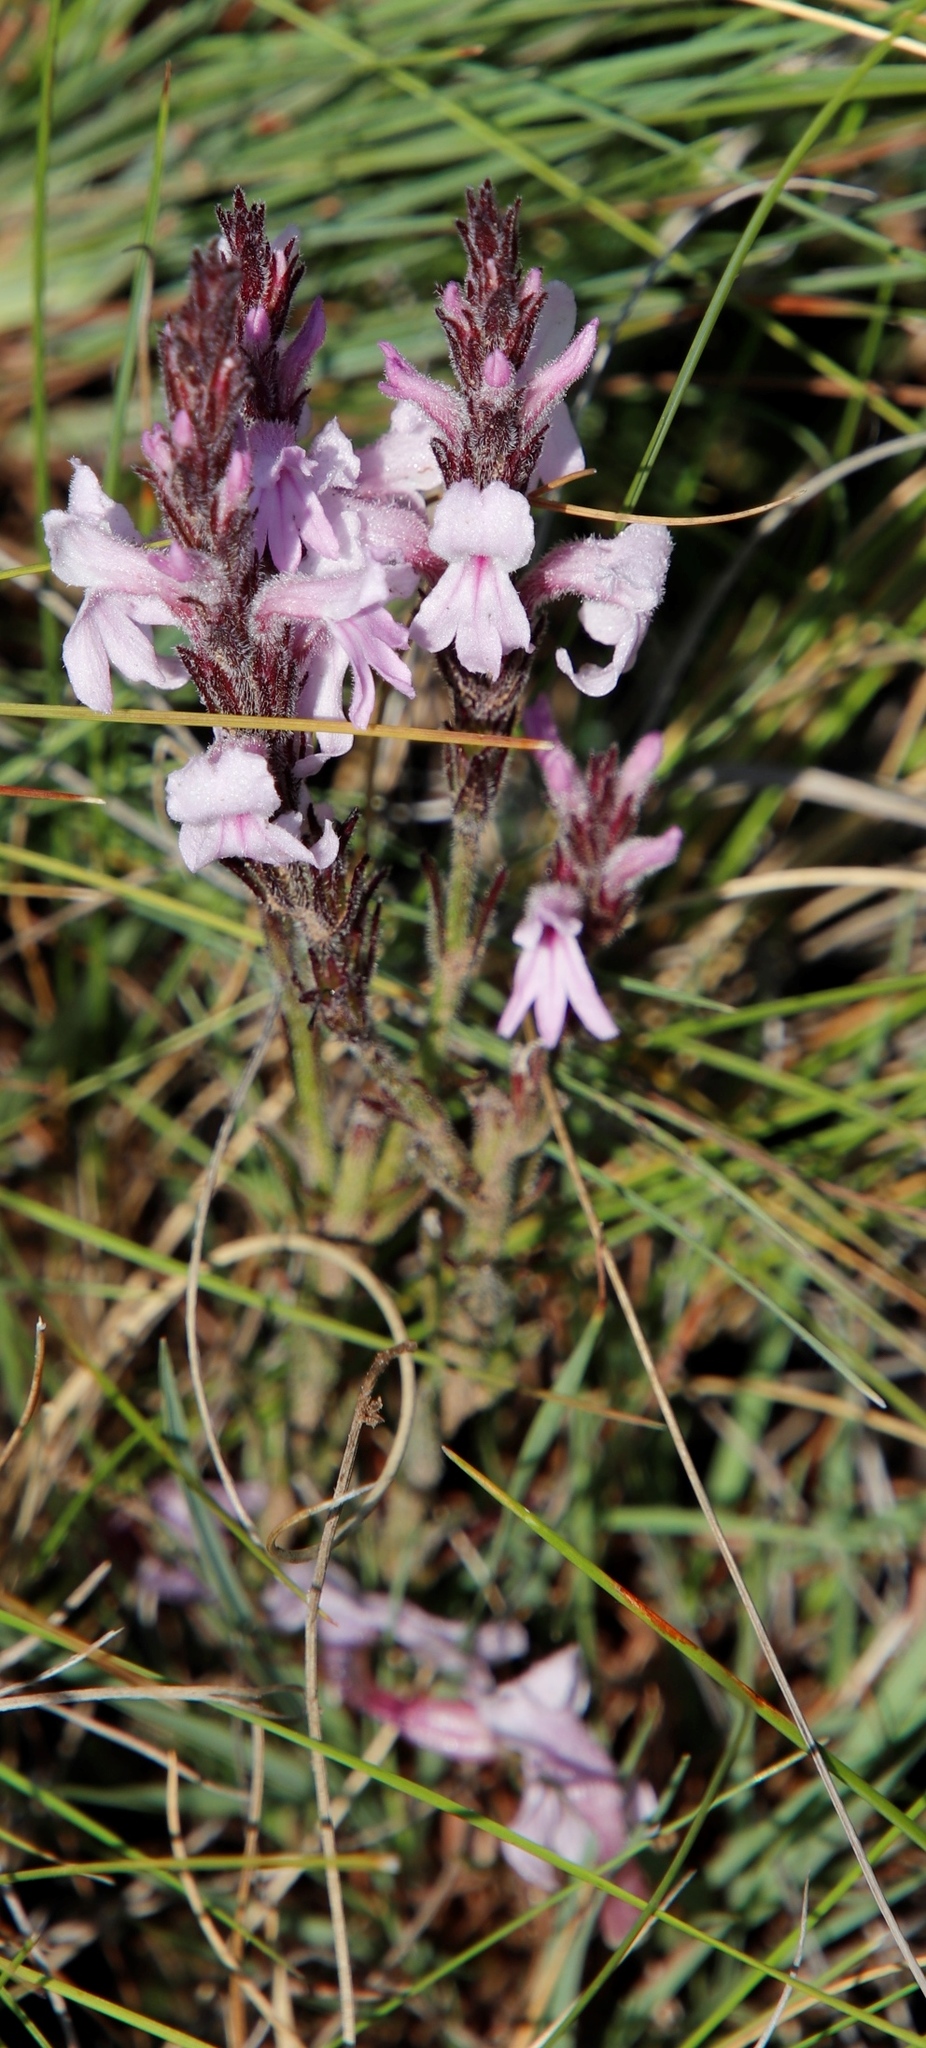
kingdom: Plantae
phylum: Tracheophyta
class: Magnoliopsida
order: Lamiales
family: Orobanchaceae
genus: Striga
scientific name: Striga bilabiata
